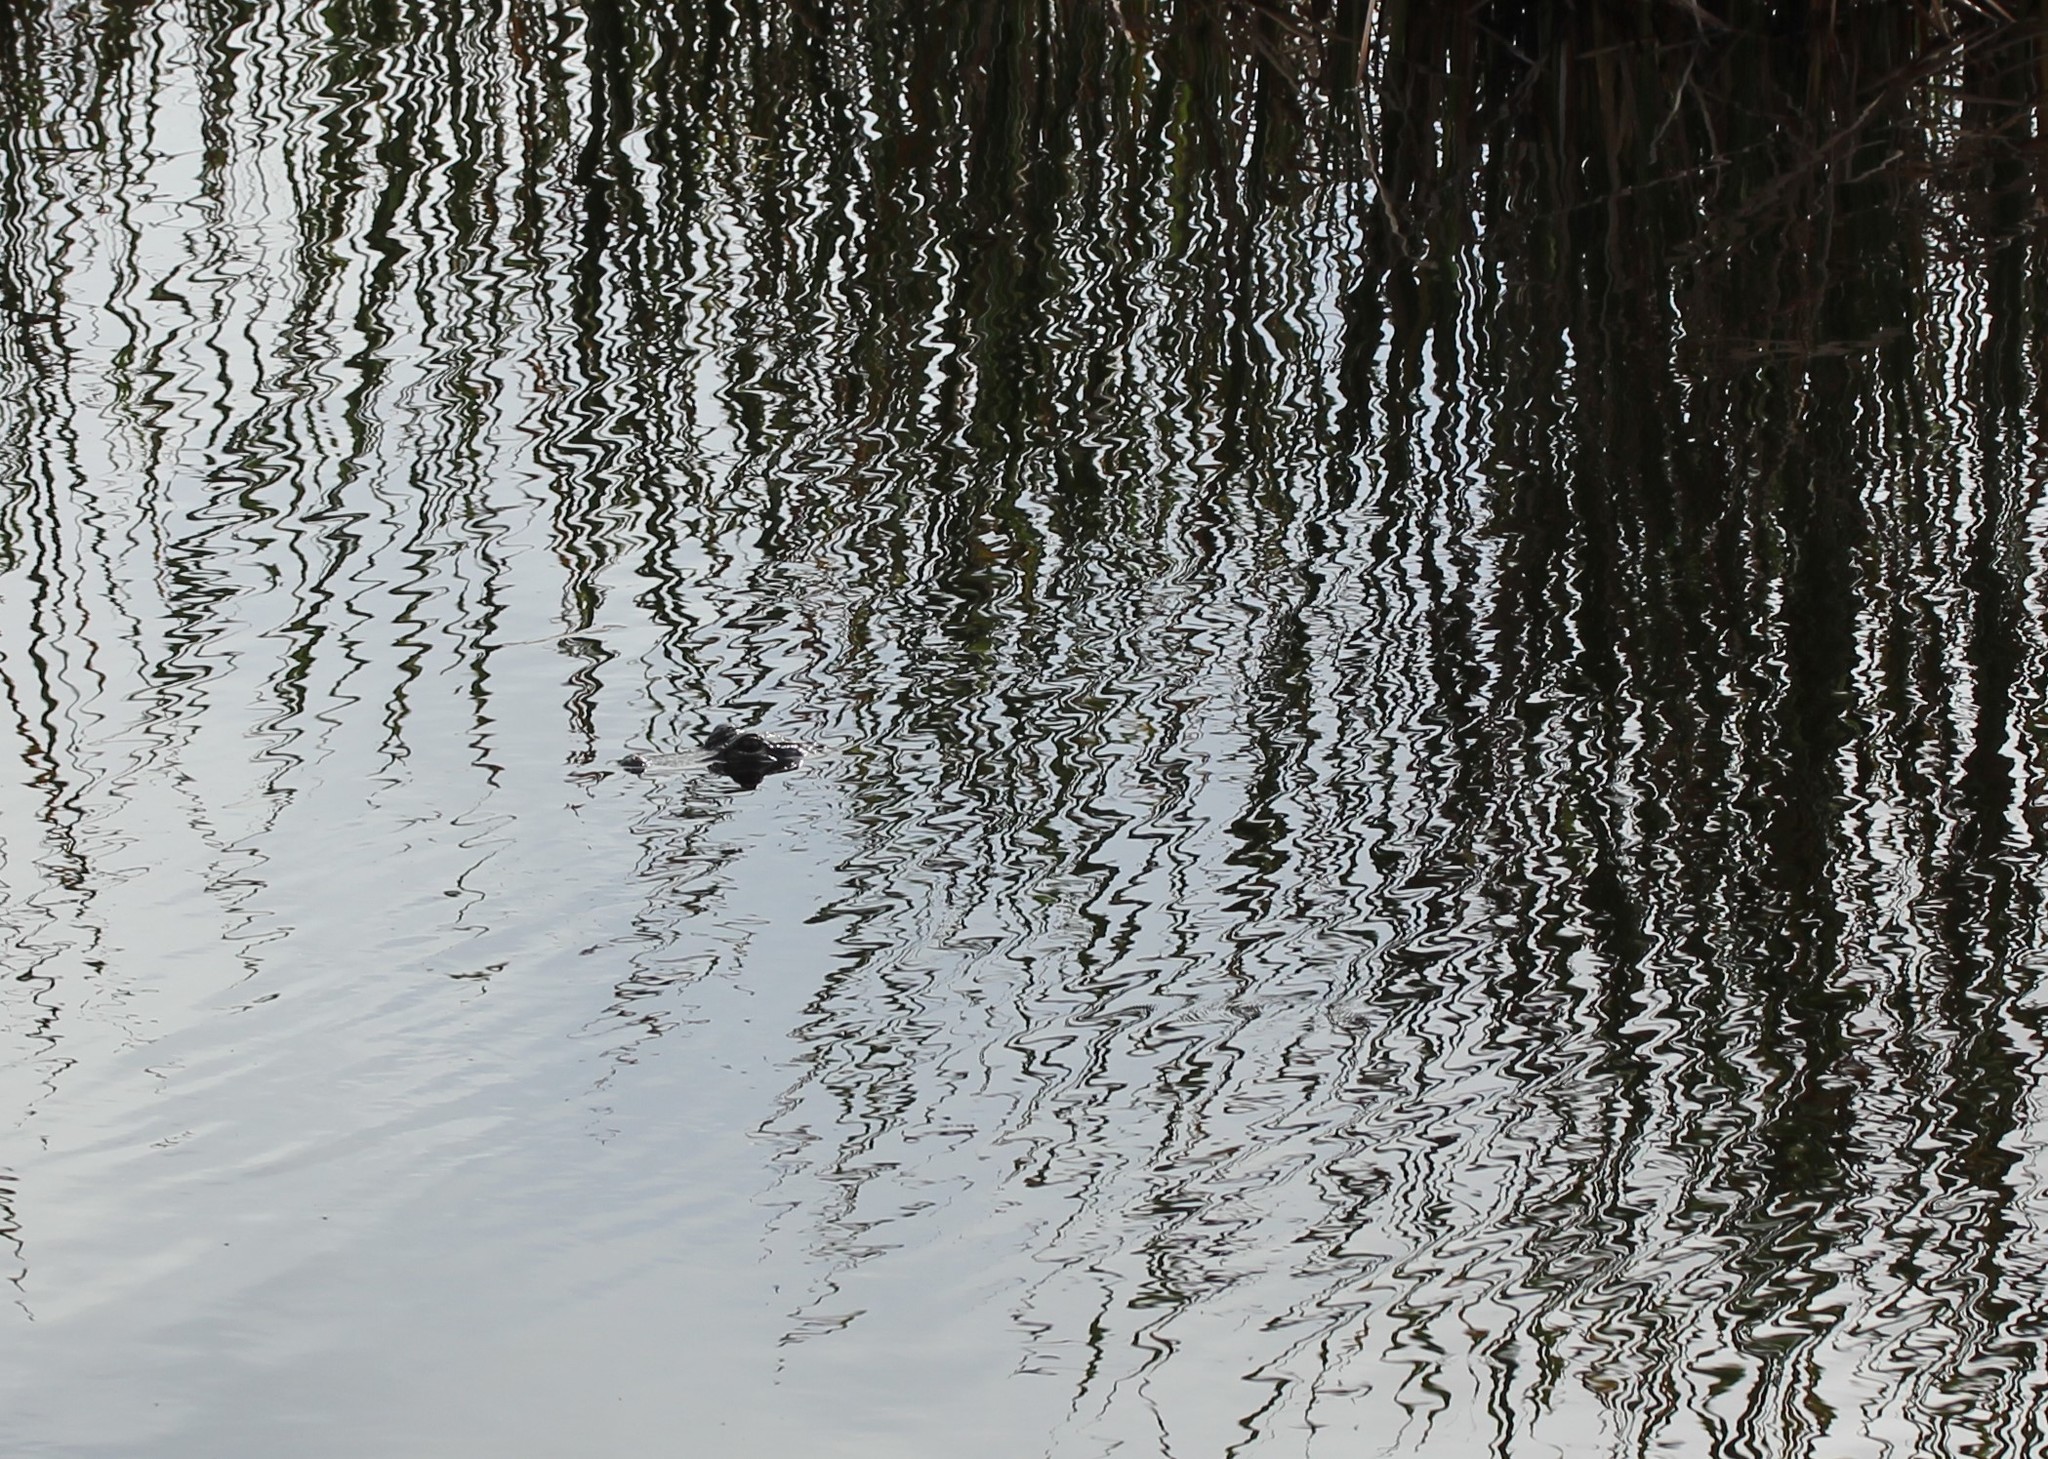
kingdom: Animalia
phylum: Chordata
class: Crocodylia
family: Alligatoridae
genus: Alligator
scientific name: Alligator mississippiensis
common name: American alligator
